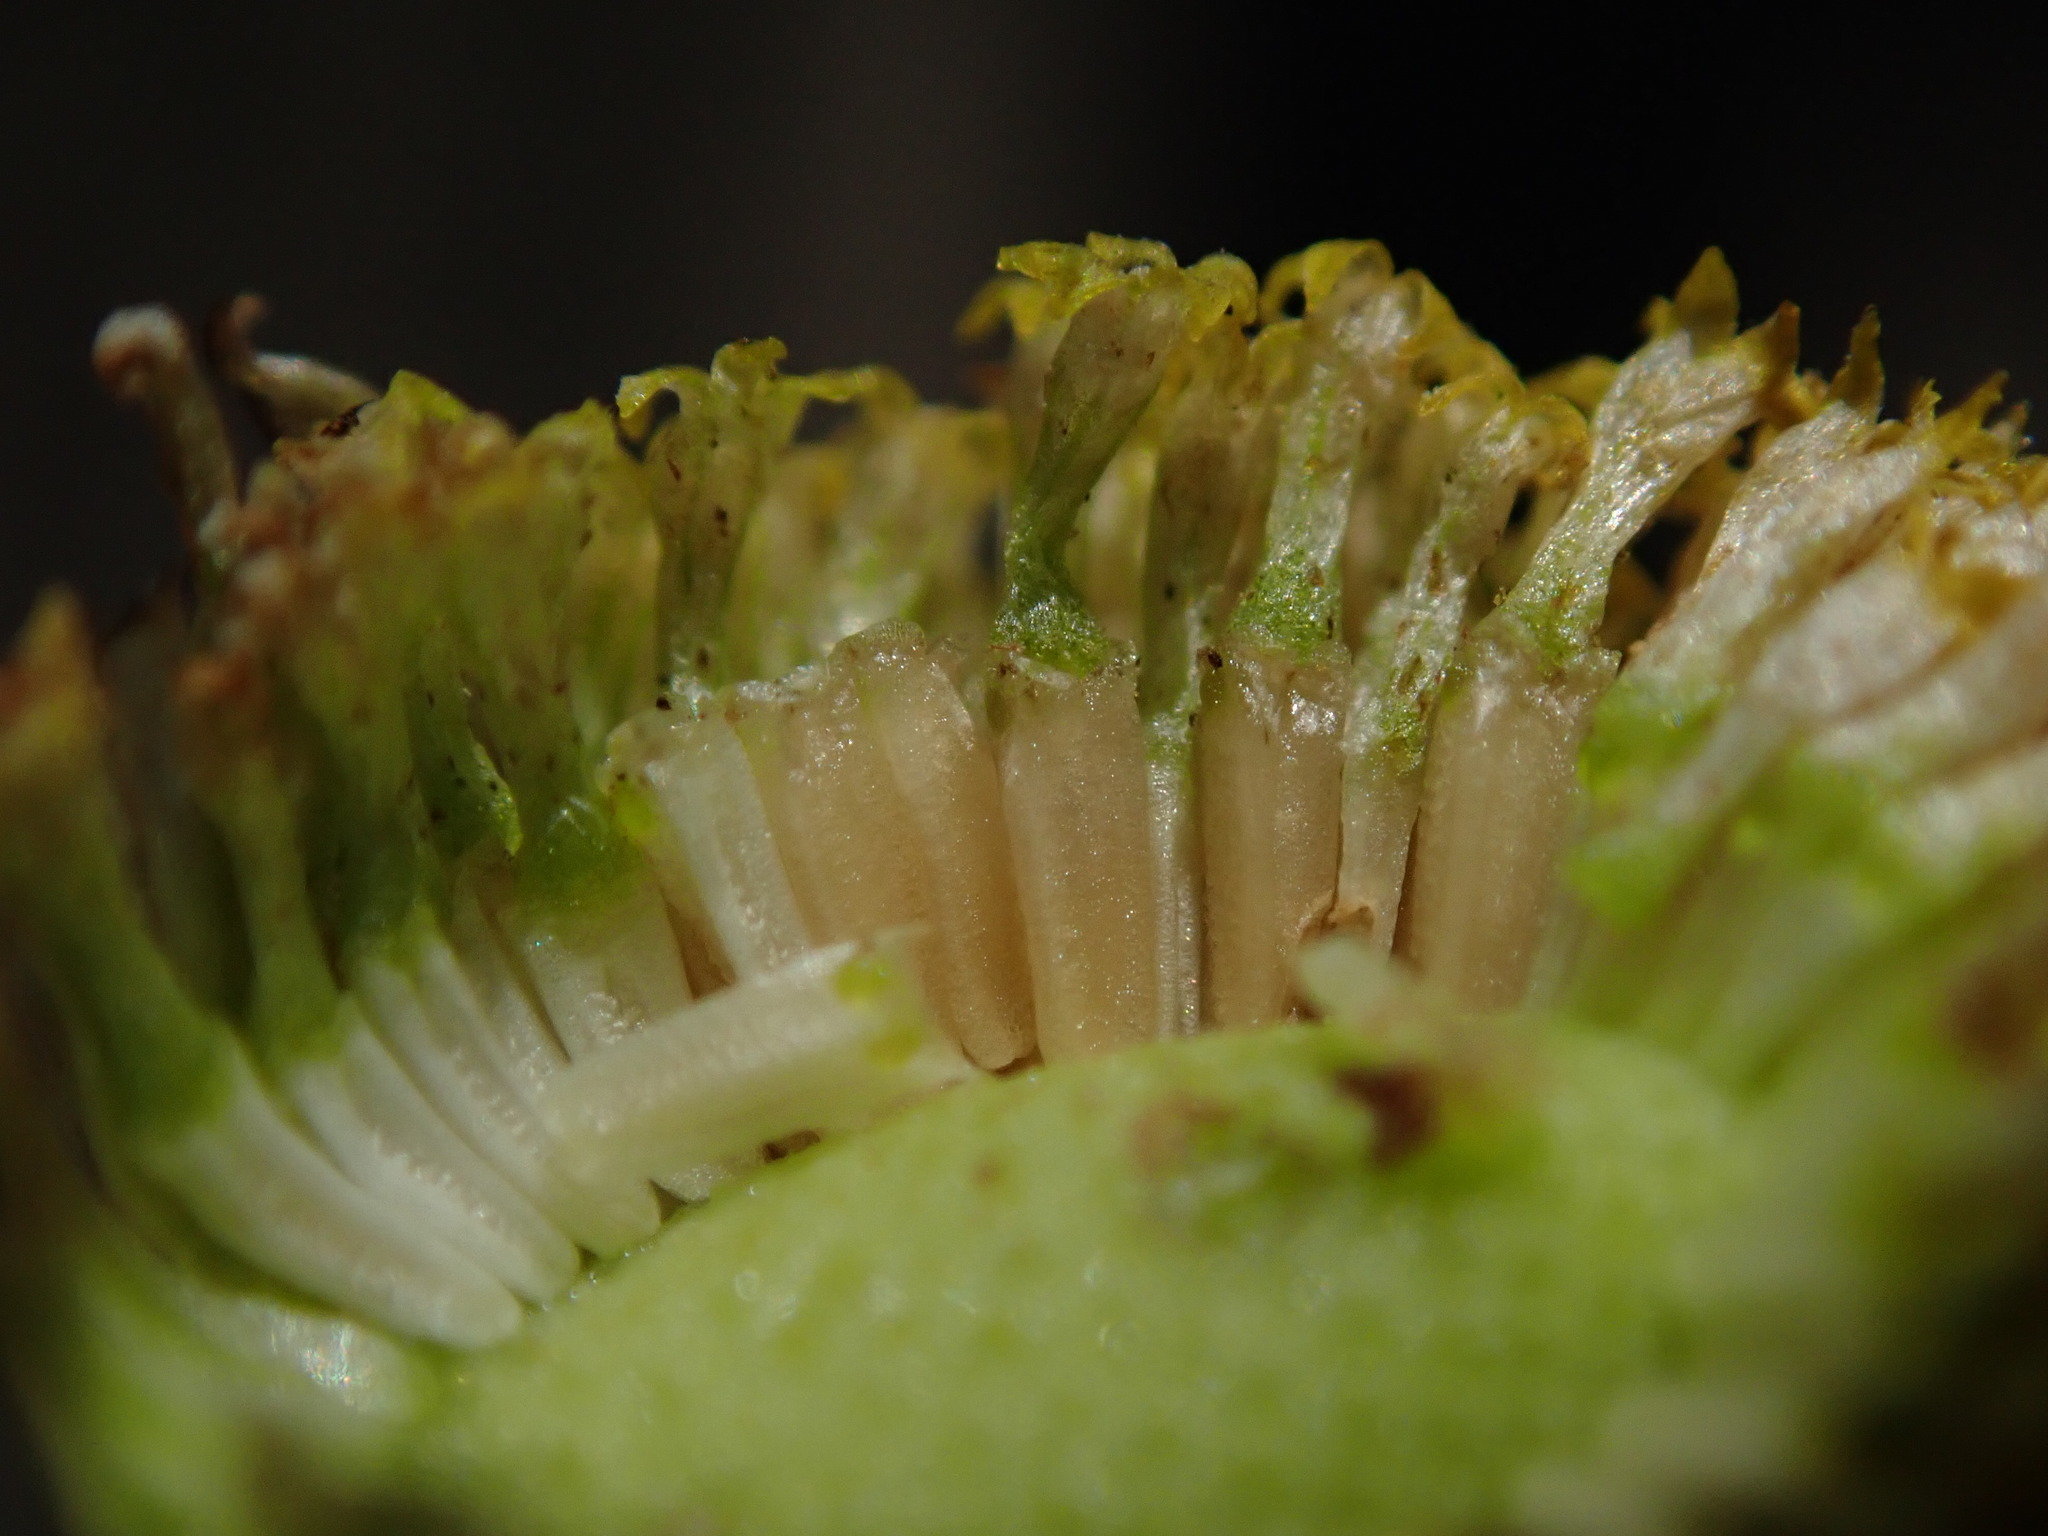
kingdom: Plantae
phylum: Tracheophyta
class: Magnoliopsida
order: Asterales
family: Asteraceae
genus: Tripleurospermum
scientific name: Tripleurospermum inodorum
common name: Scentless mayweed
